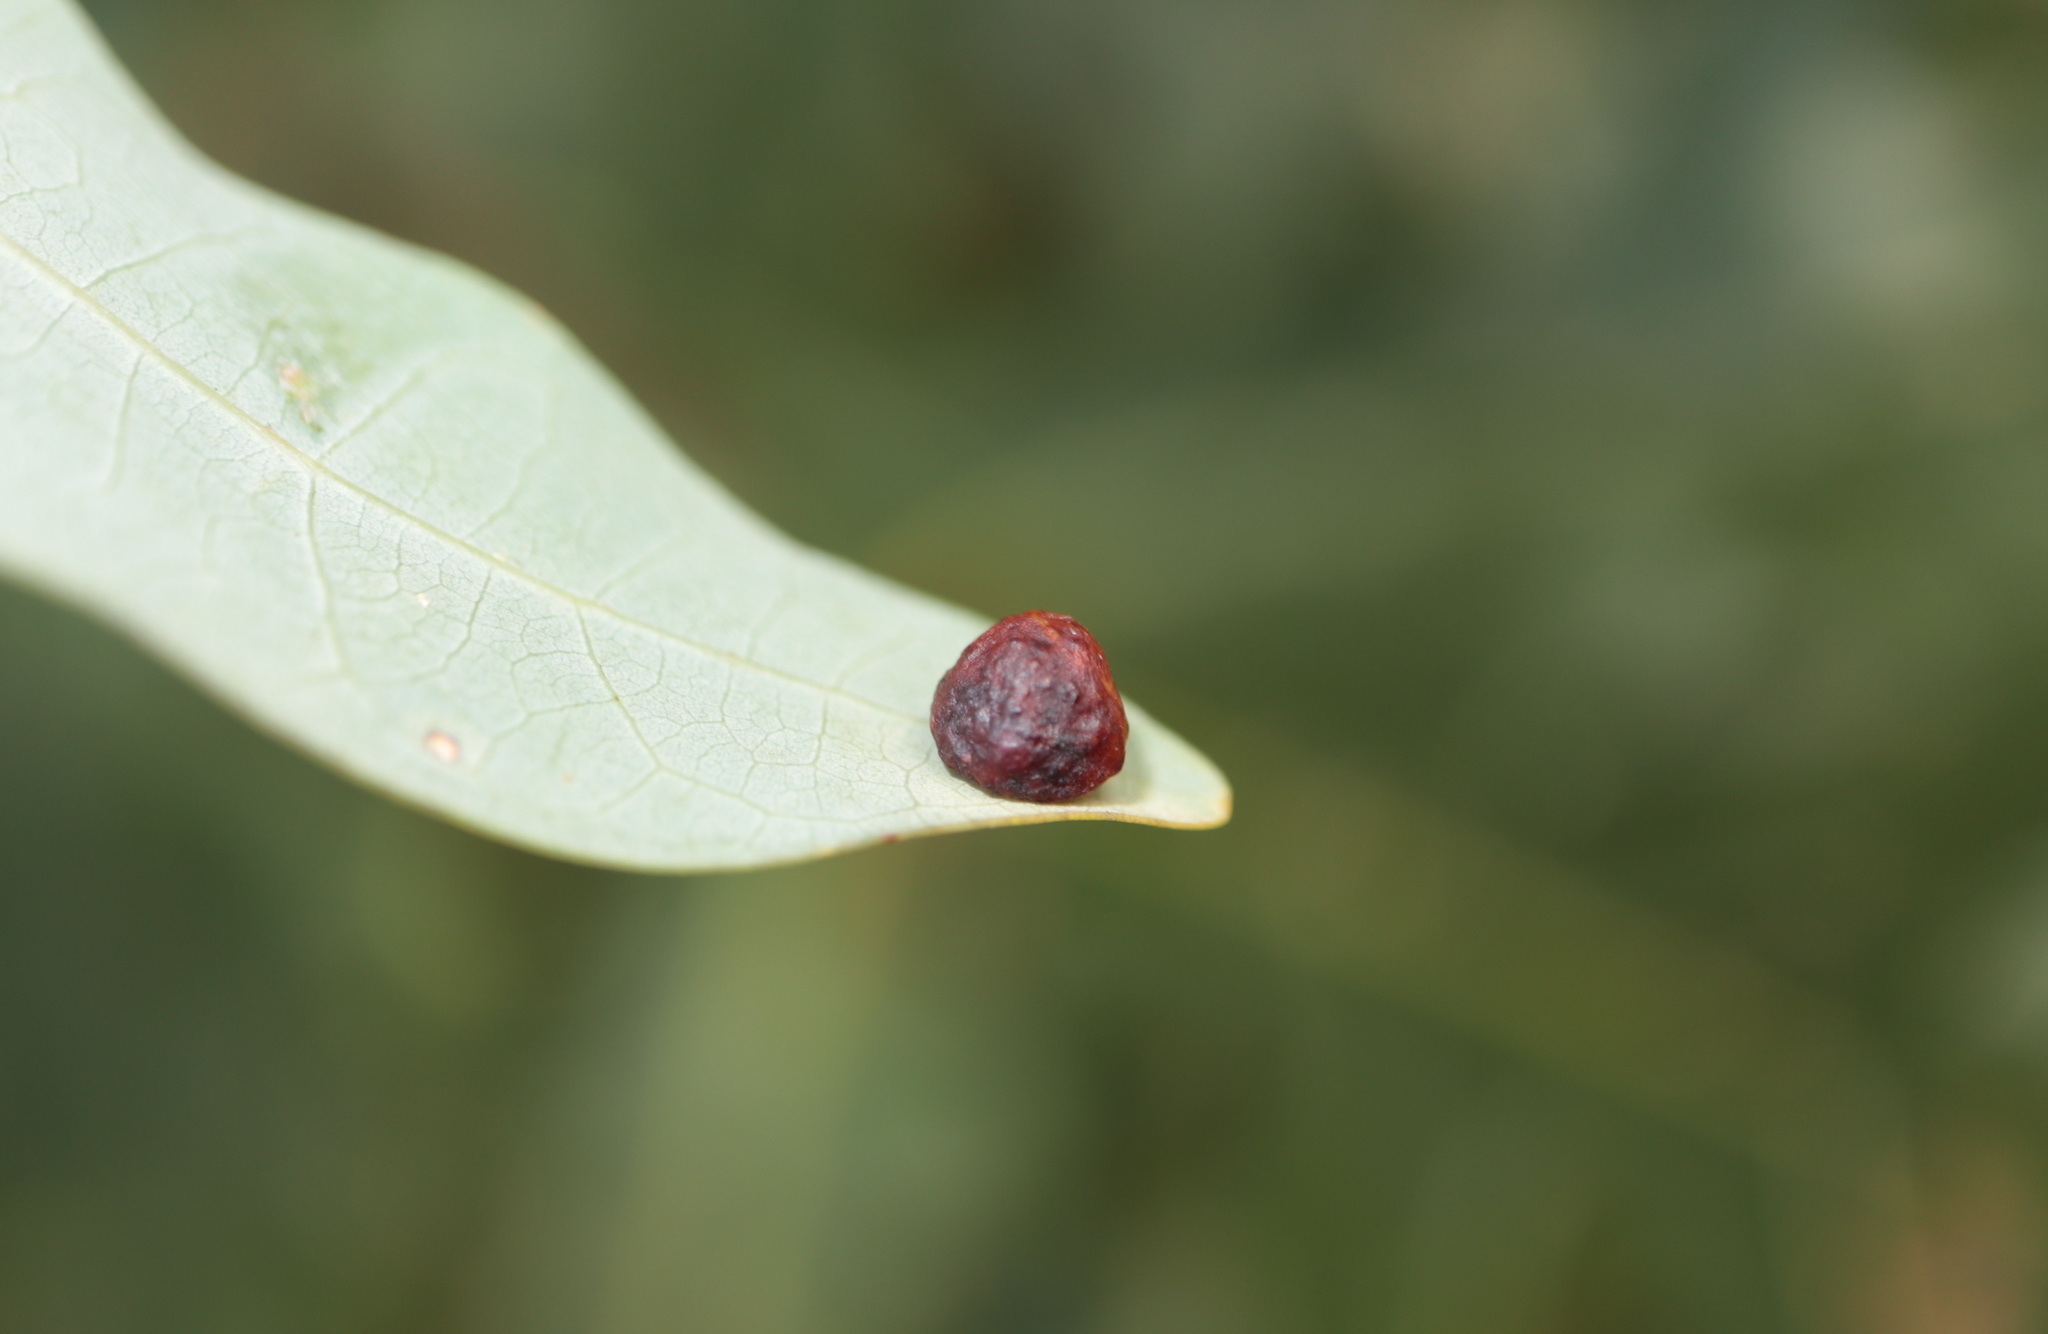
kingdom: Animalia
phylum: Arthropoda
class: Insecta
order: Hymenoptera
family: Cynipidae
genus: Andricus
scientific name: Andricus
